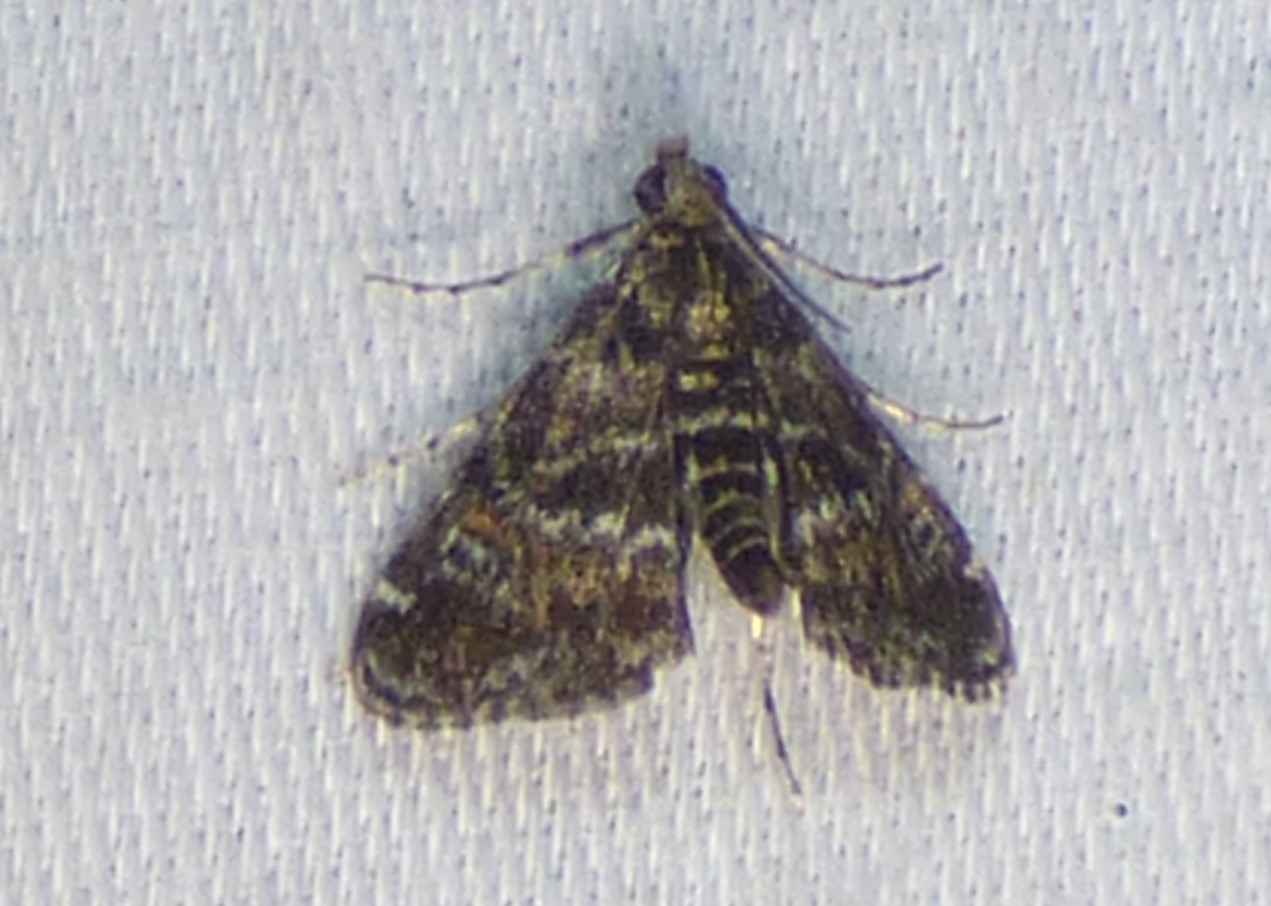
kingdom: Animalia
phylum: Arthropoda
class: Insecta
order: Lepidoptera
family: Crambidae
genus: Elophila
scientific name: Elophila obliteralis
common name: Waterlily leafcutter moth
